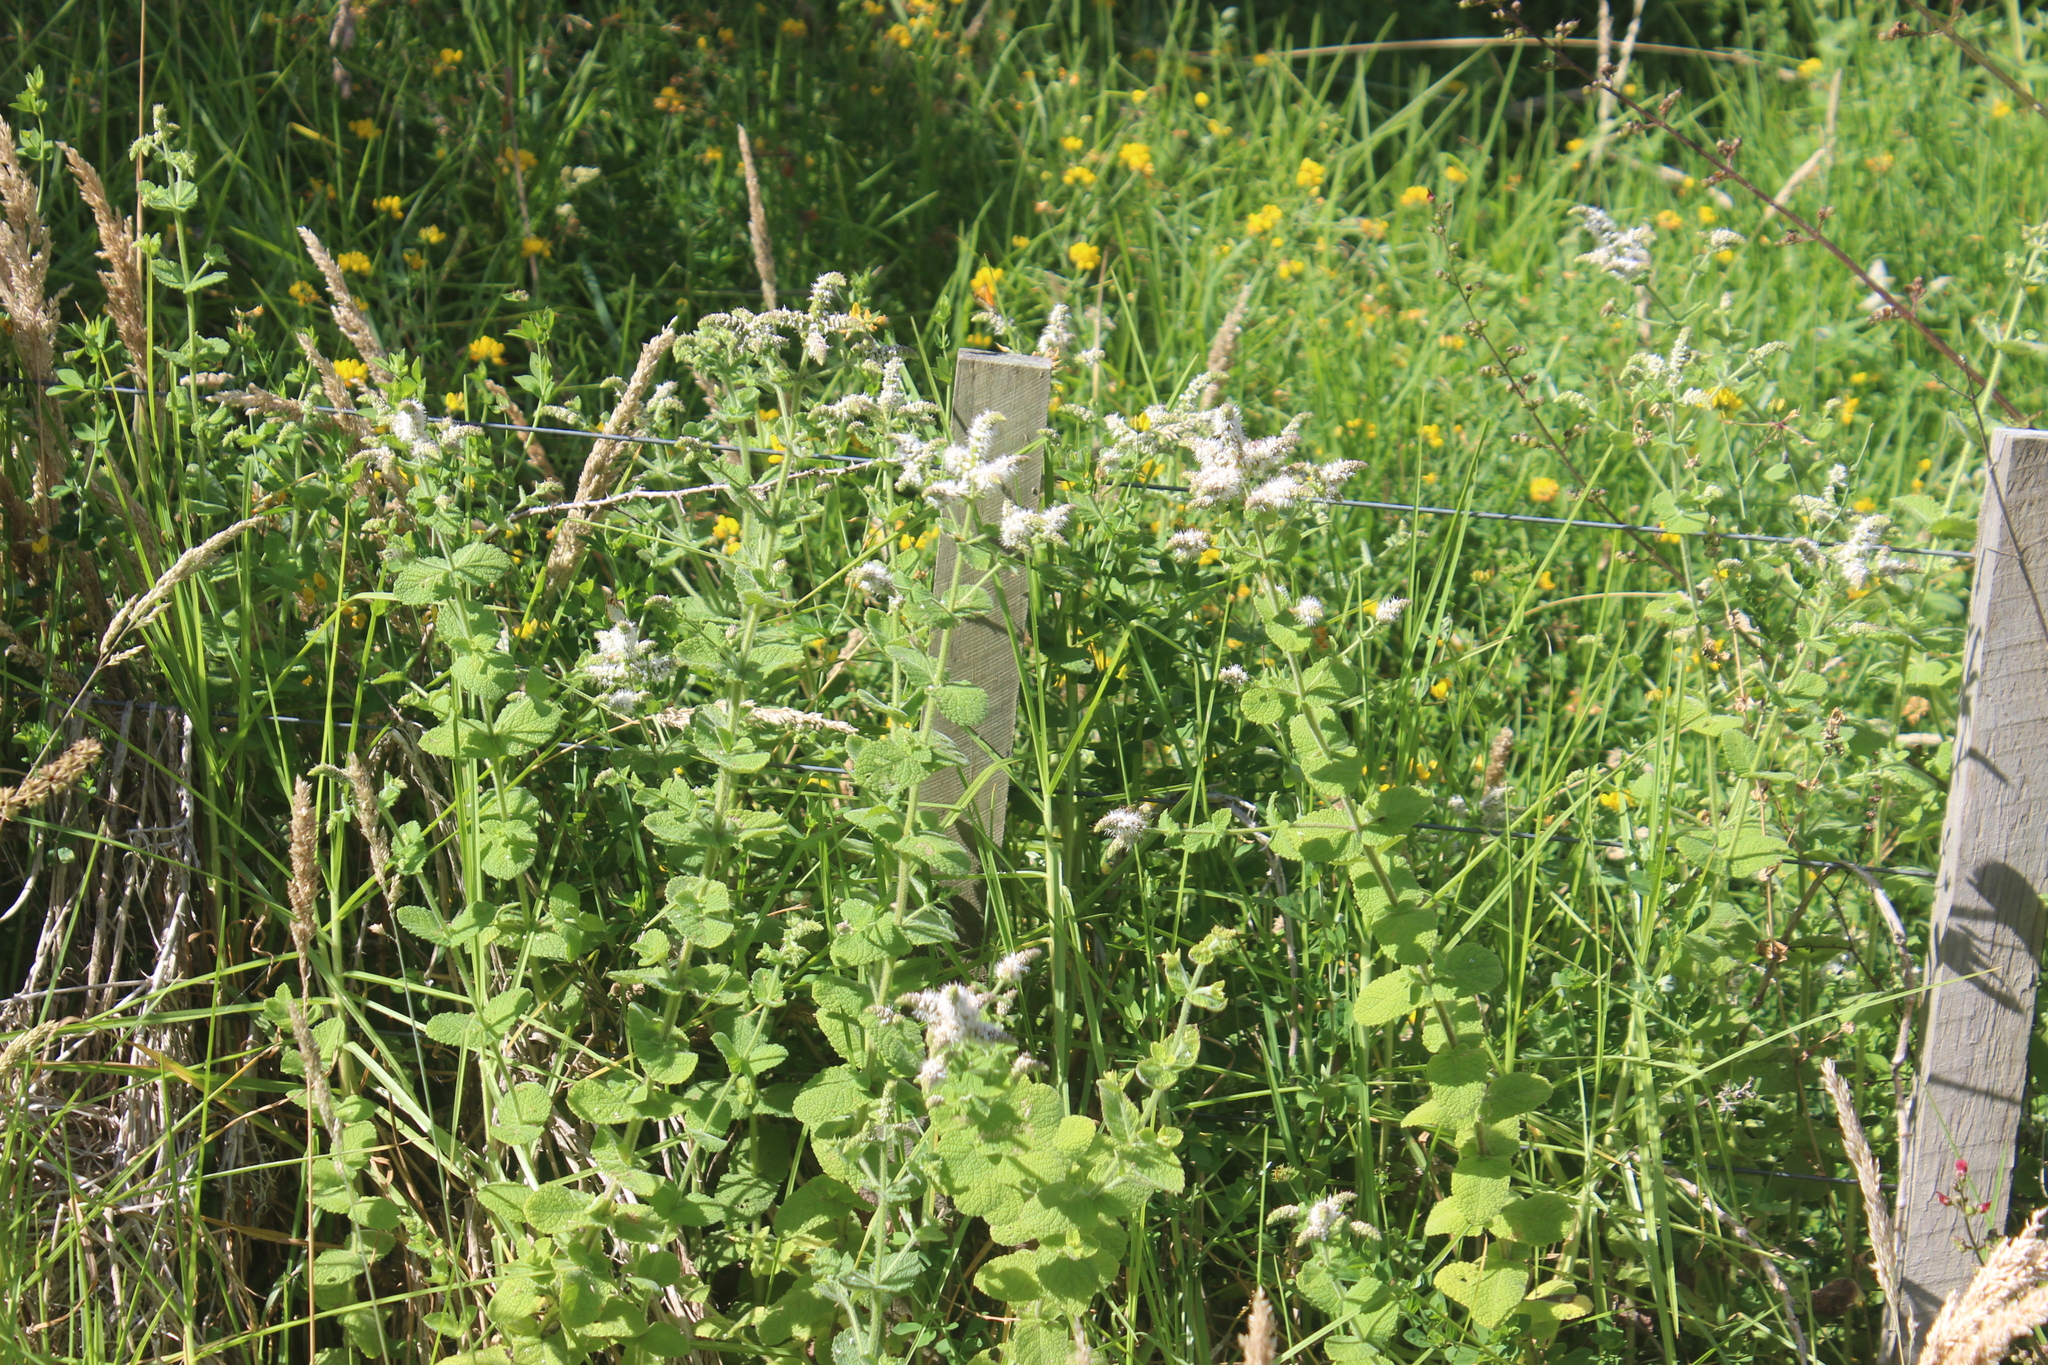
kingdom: Plantae
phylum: Tracheophyta
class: Magnoliopsida
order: Lamiales
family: Lamiaceae
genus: Mentha
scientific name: Mentha suaveolens
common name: Apple mint
